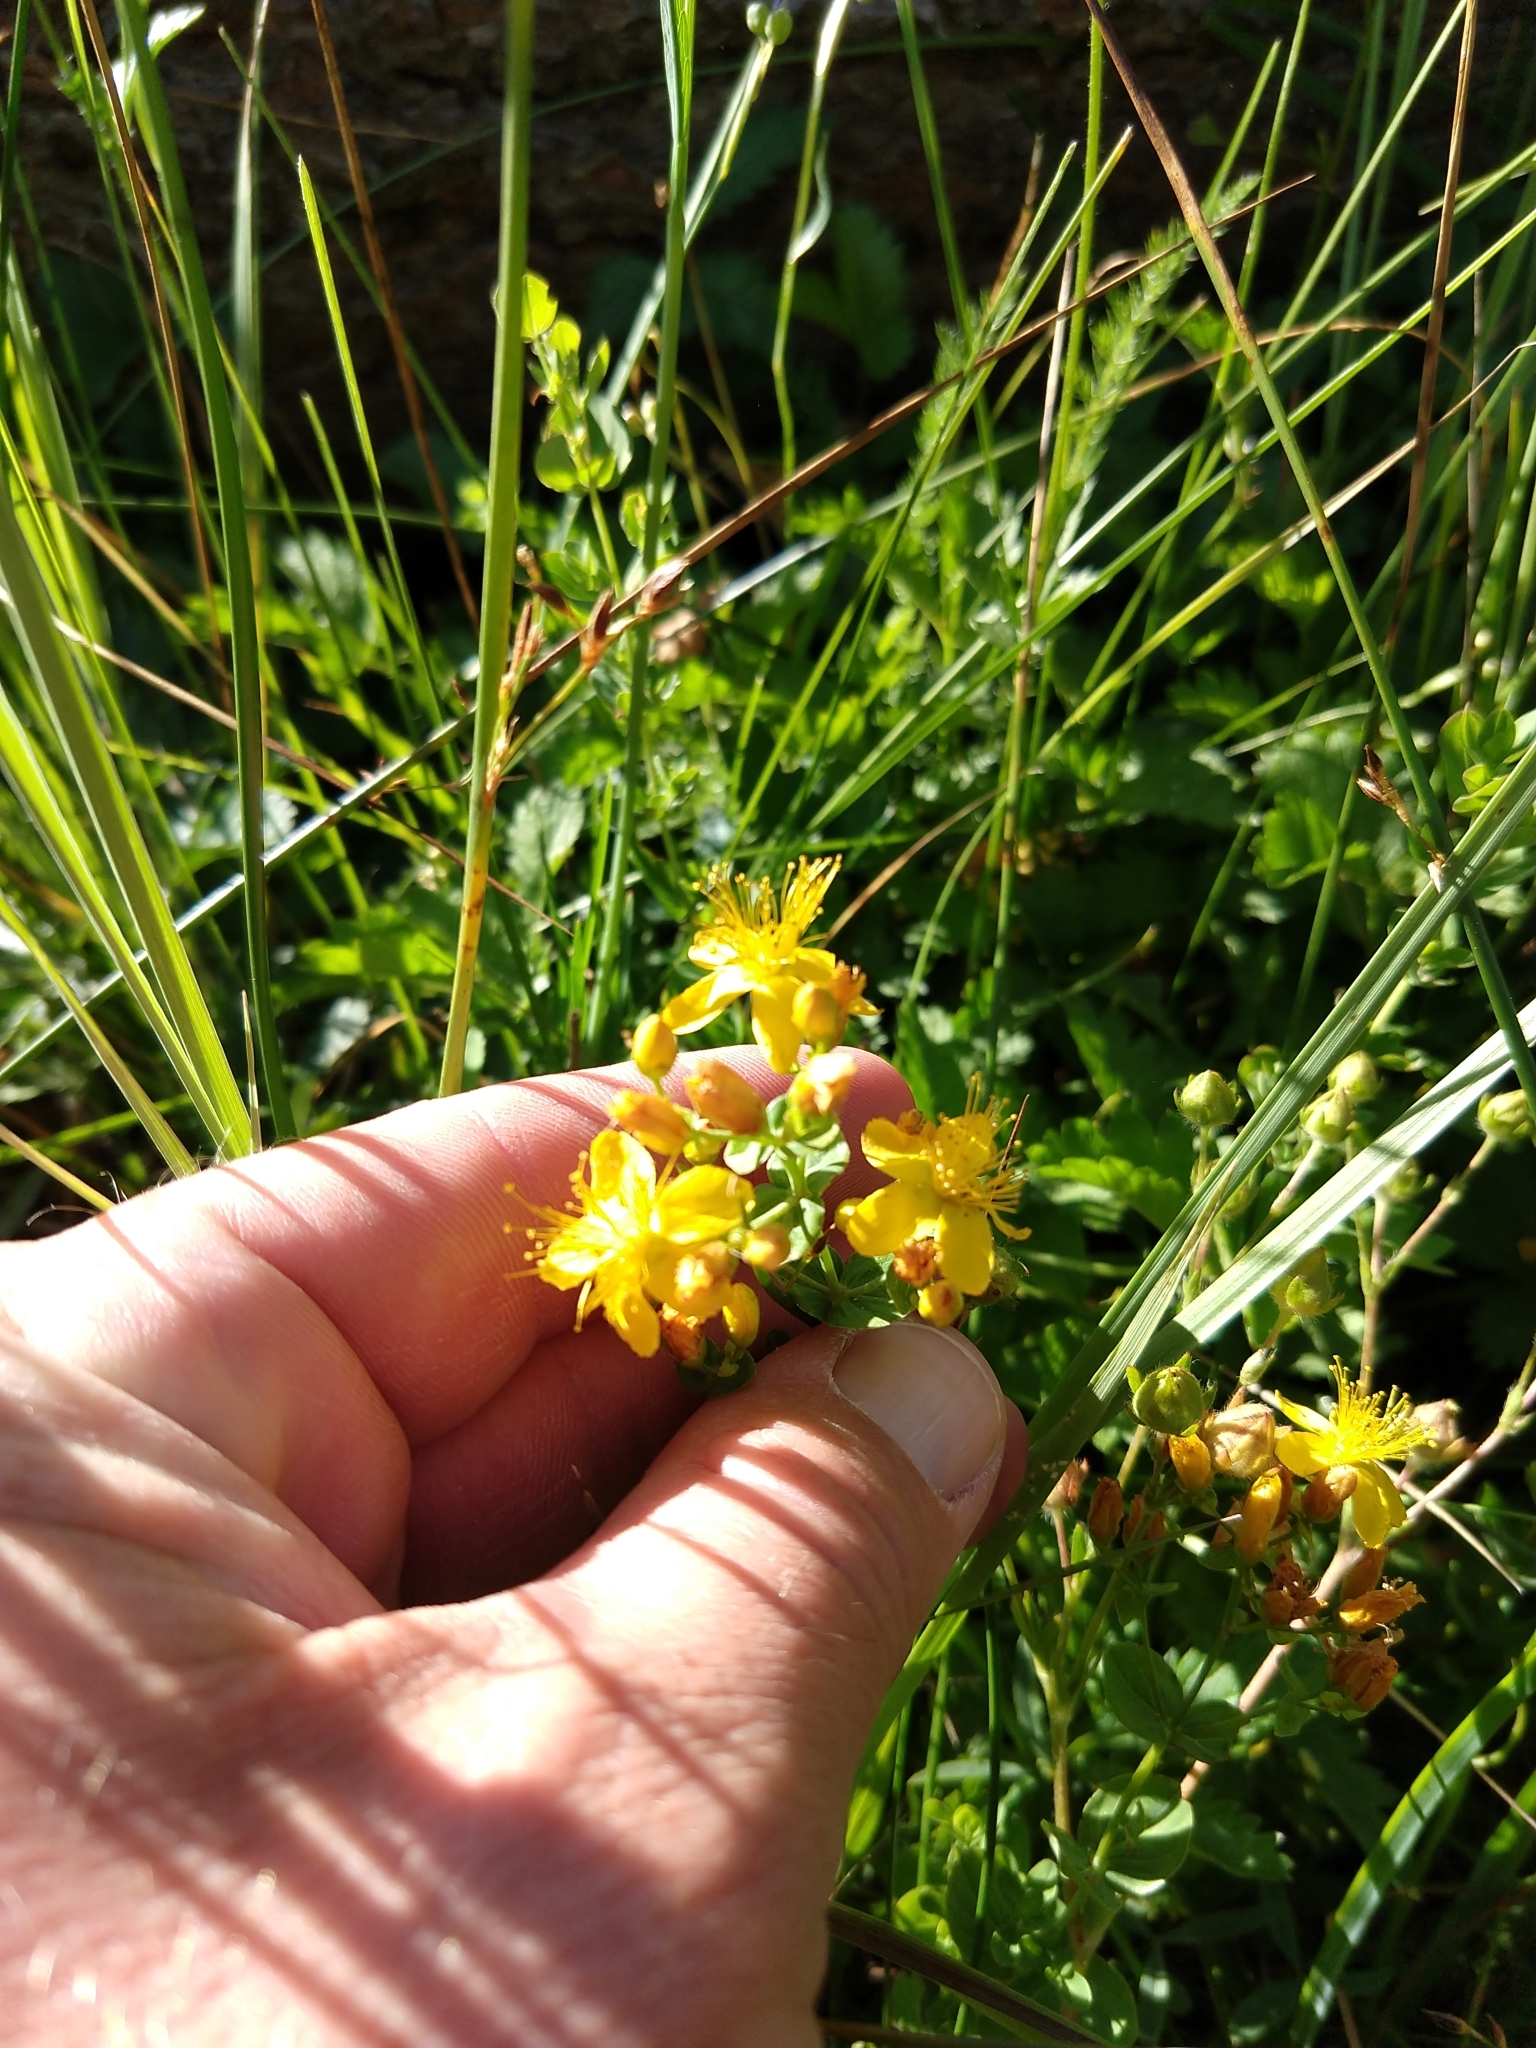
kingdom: Plantae
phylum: Tracheophyta
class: Magnoliopsida
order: Malpighiales
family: Hypericaceae
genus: Hypericum
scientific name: Hypericum scouleri
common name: Scouler's st. john's-wort
